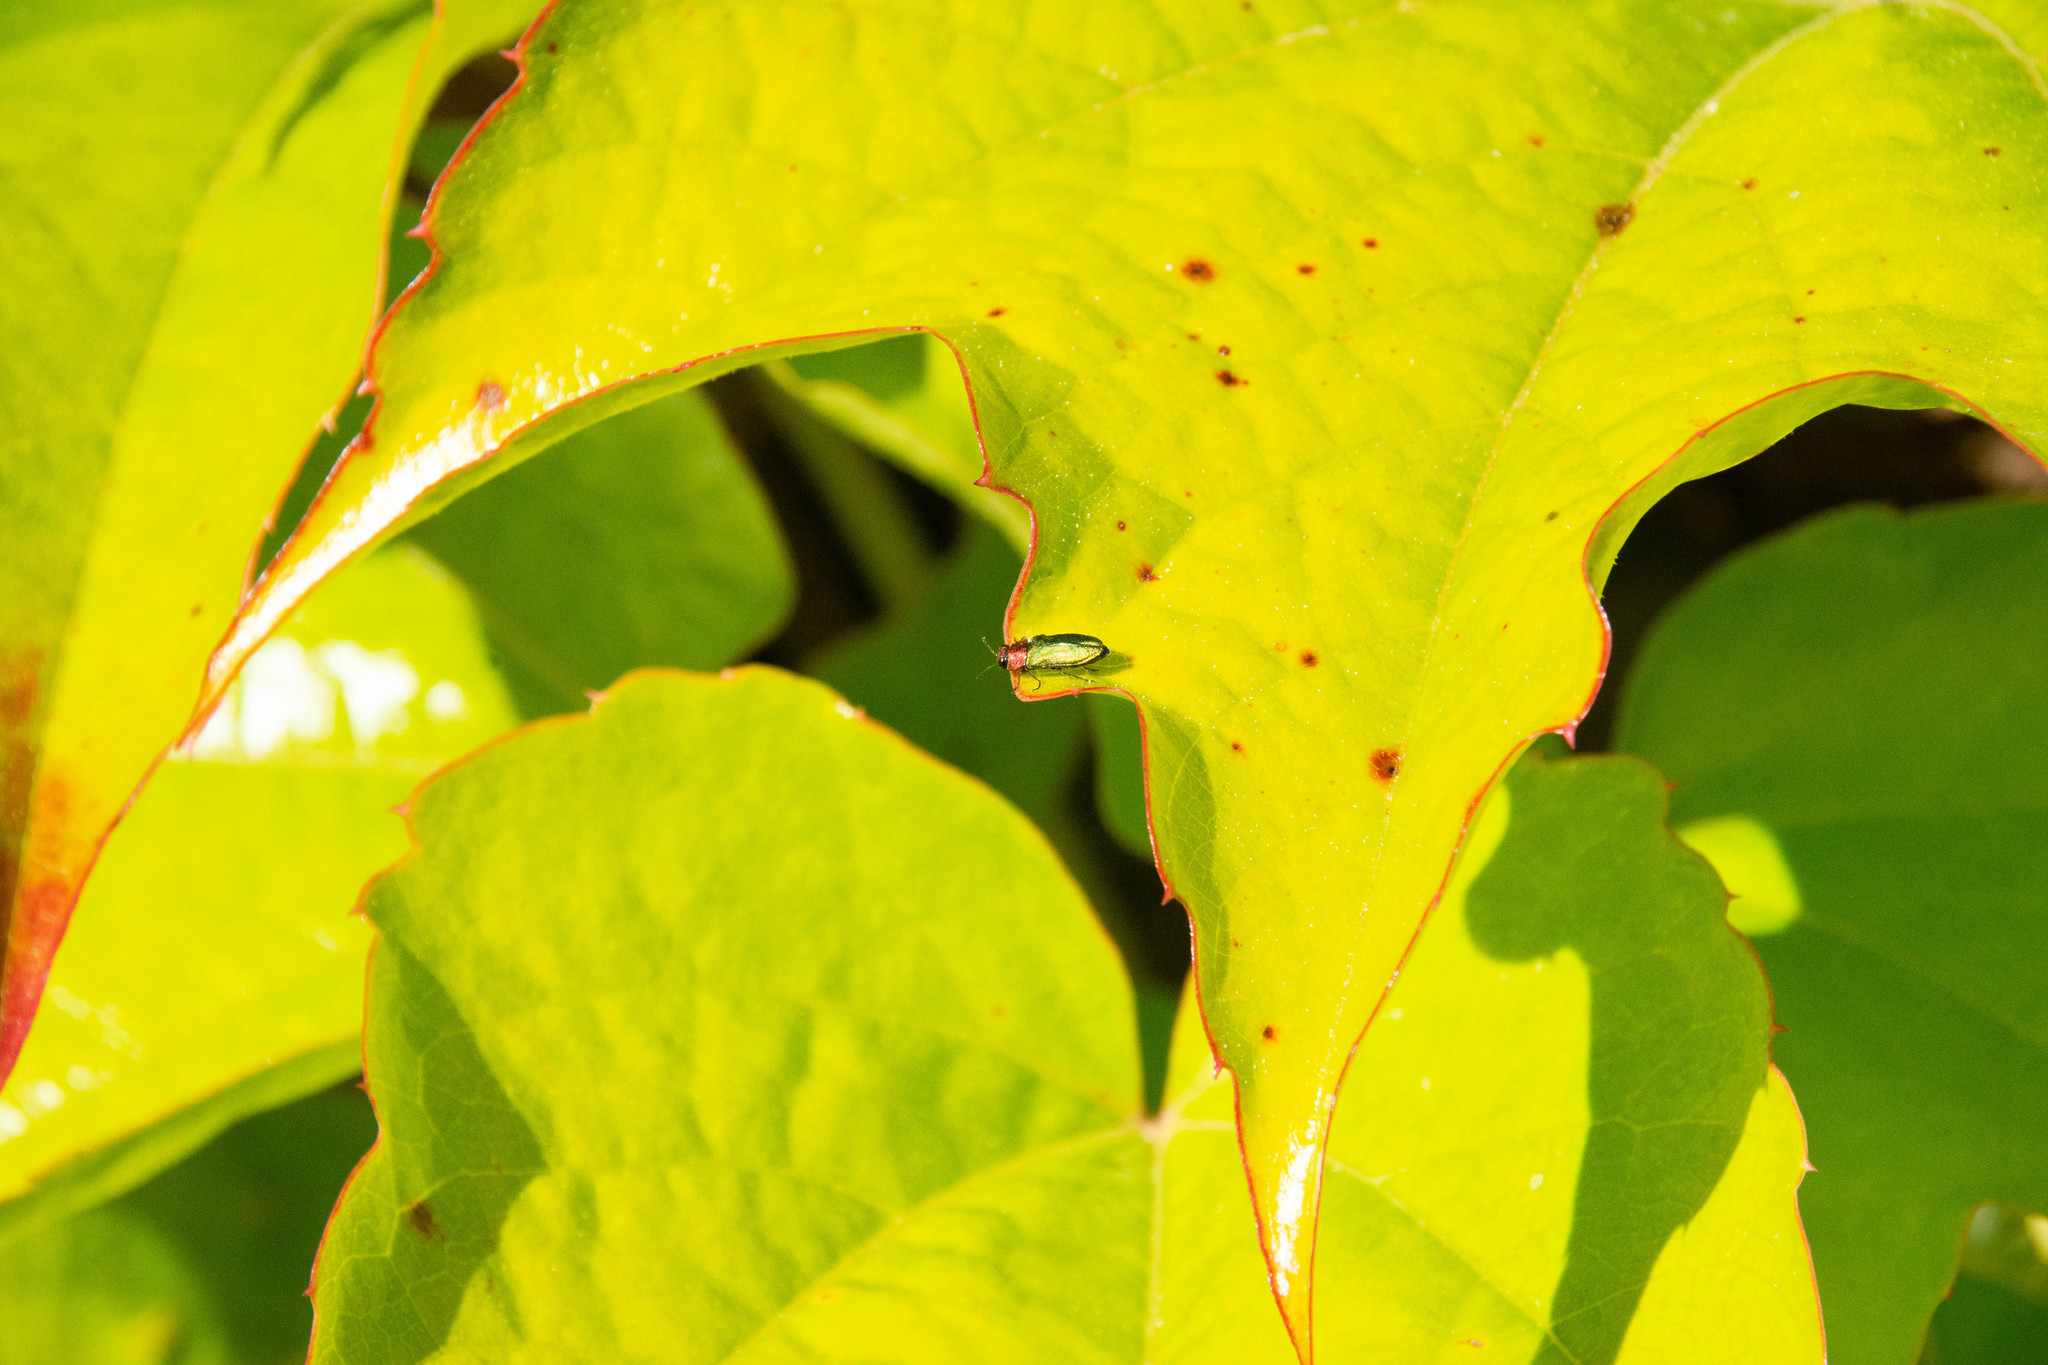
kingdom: Animalia
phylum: Arthropoda
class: Insecta
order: Coleoptera
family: Buprestidae
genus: Anthaxia
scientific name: Anthaxia nitidula
